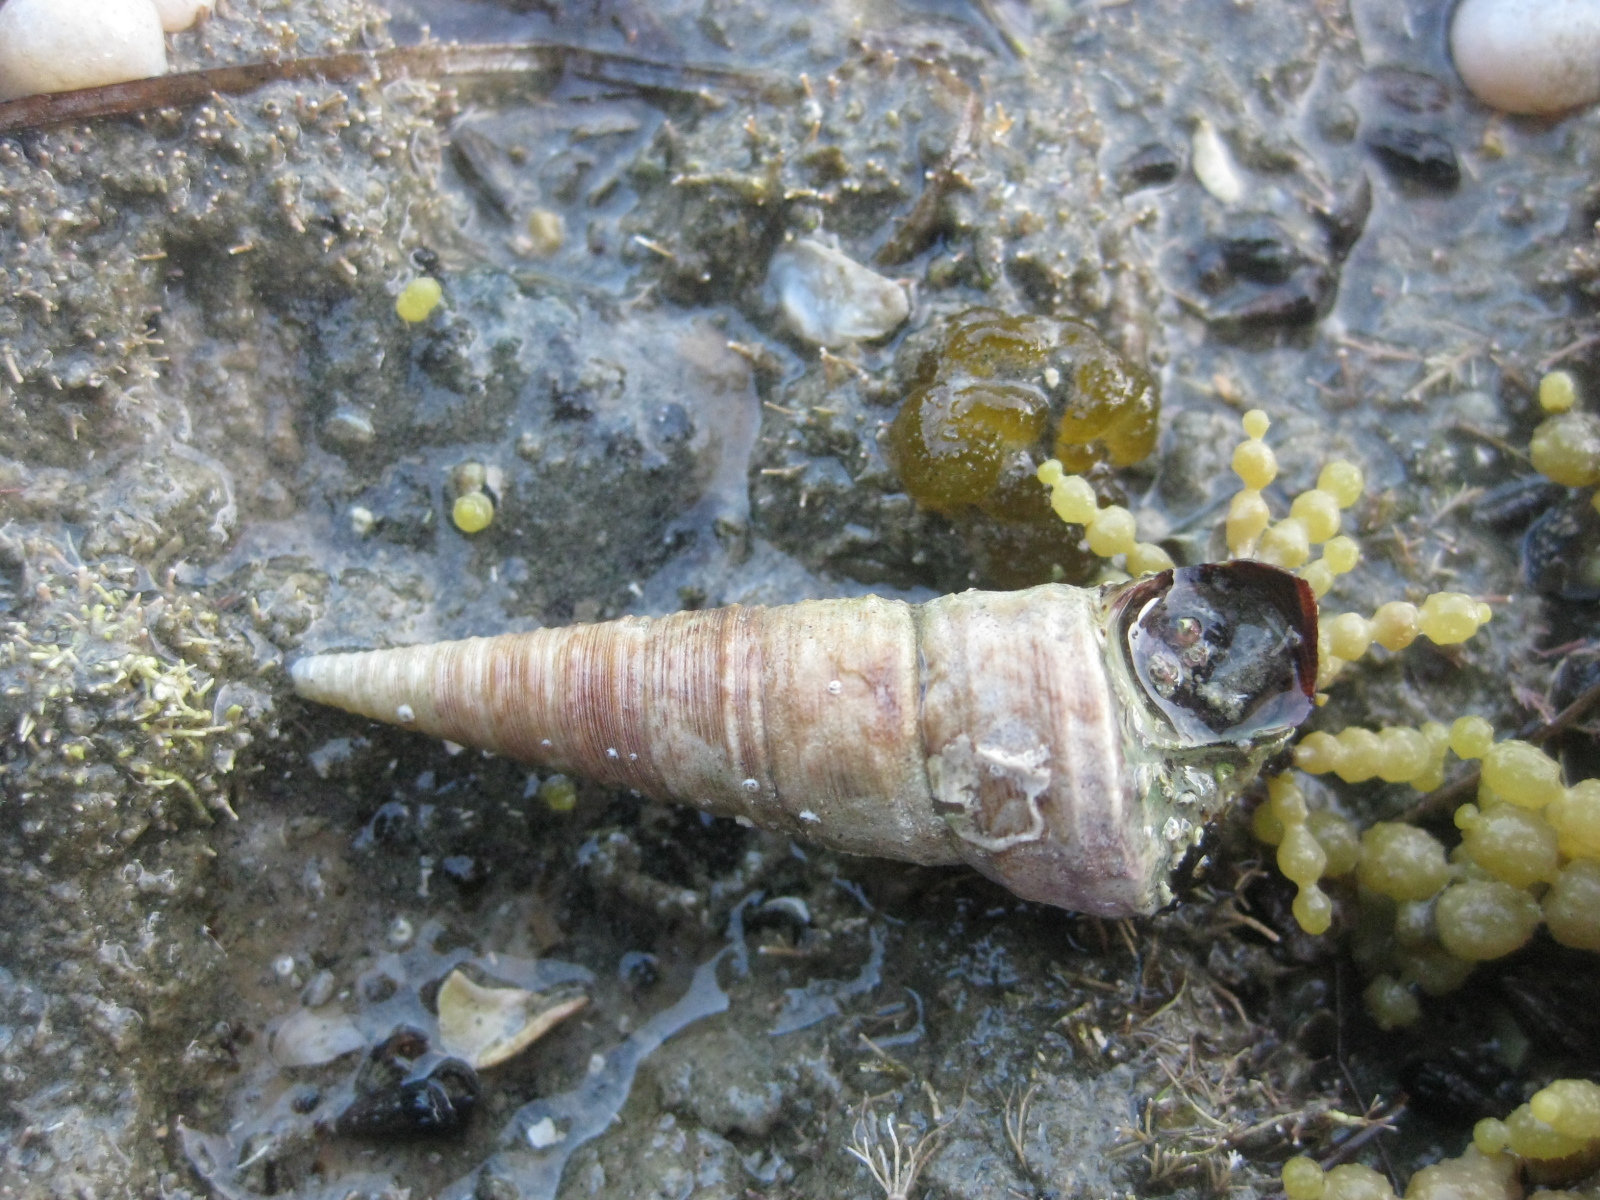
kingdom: Animalia
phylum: Mollusca
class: Gastropoda
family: Turritellidae
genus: Maoricolpus
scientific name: Maoricolpus roseus
